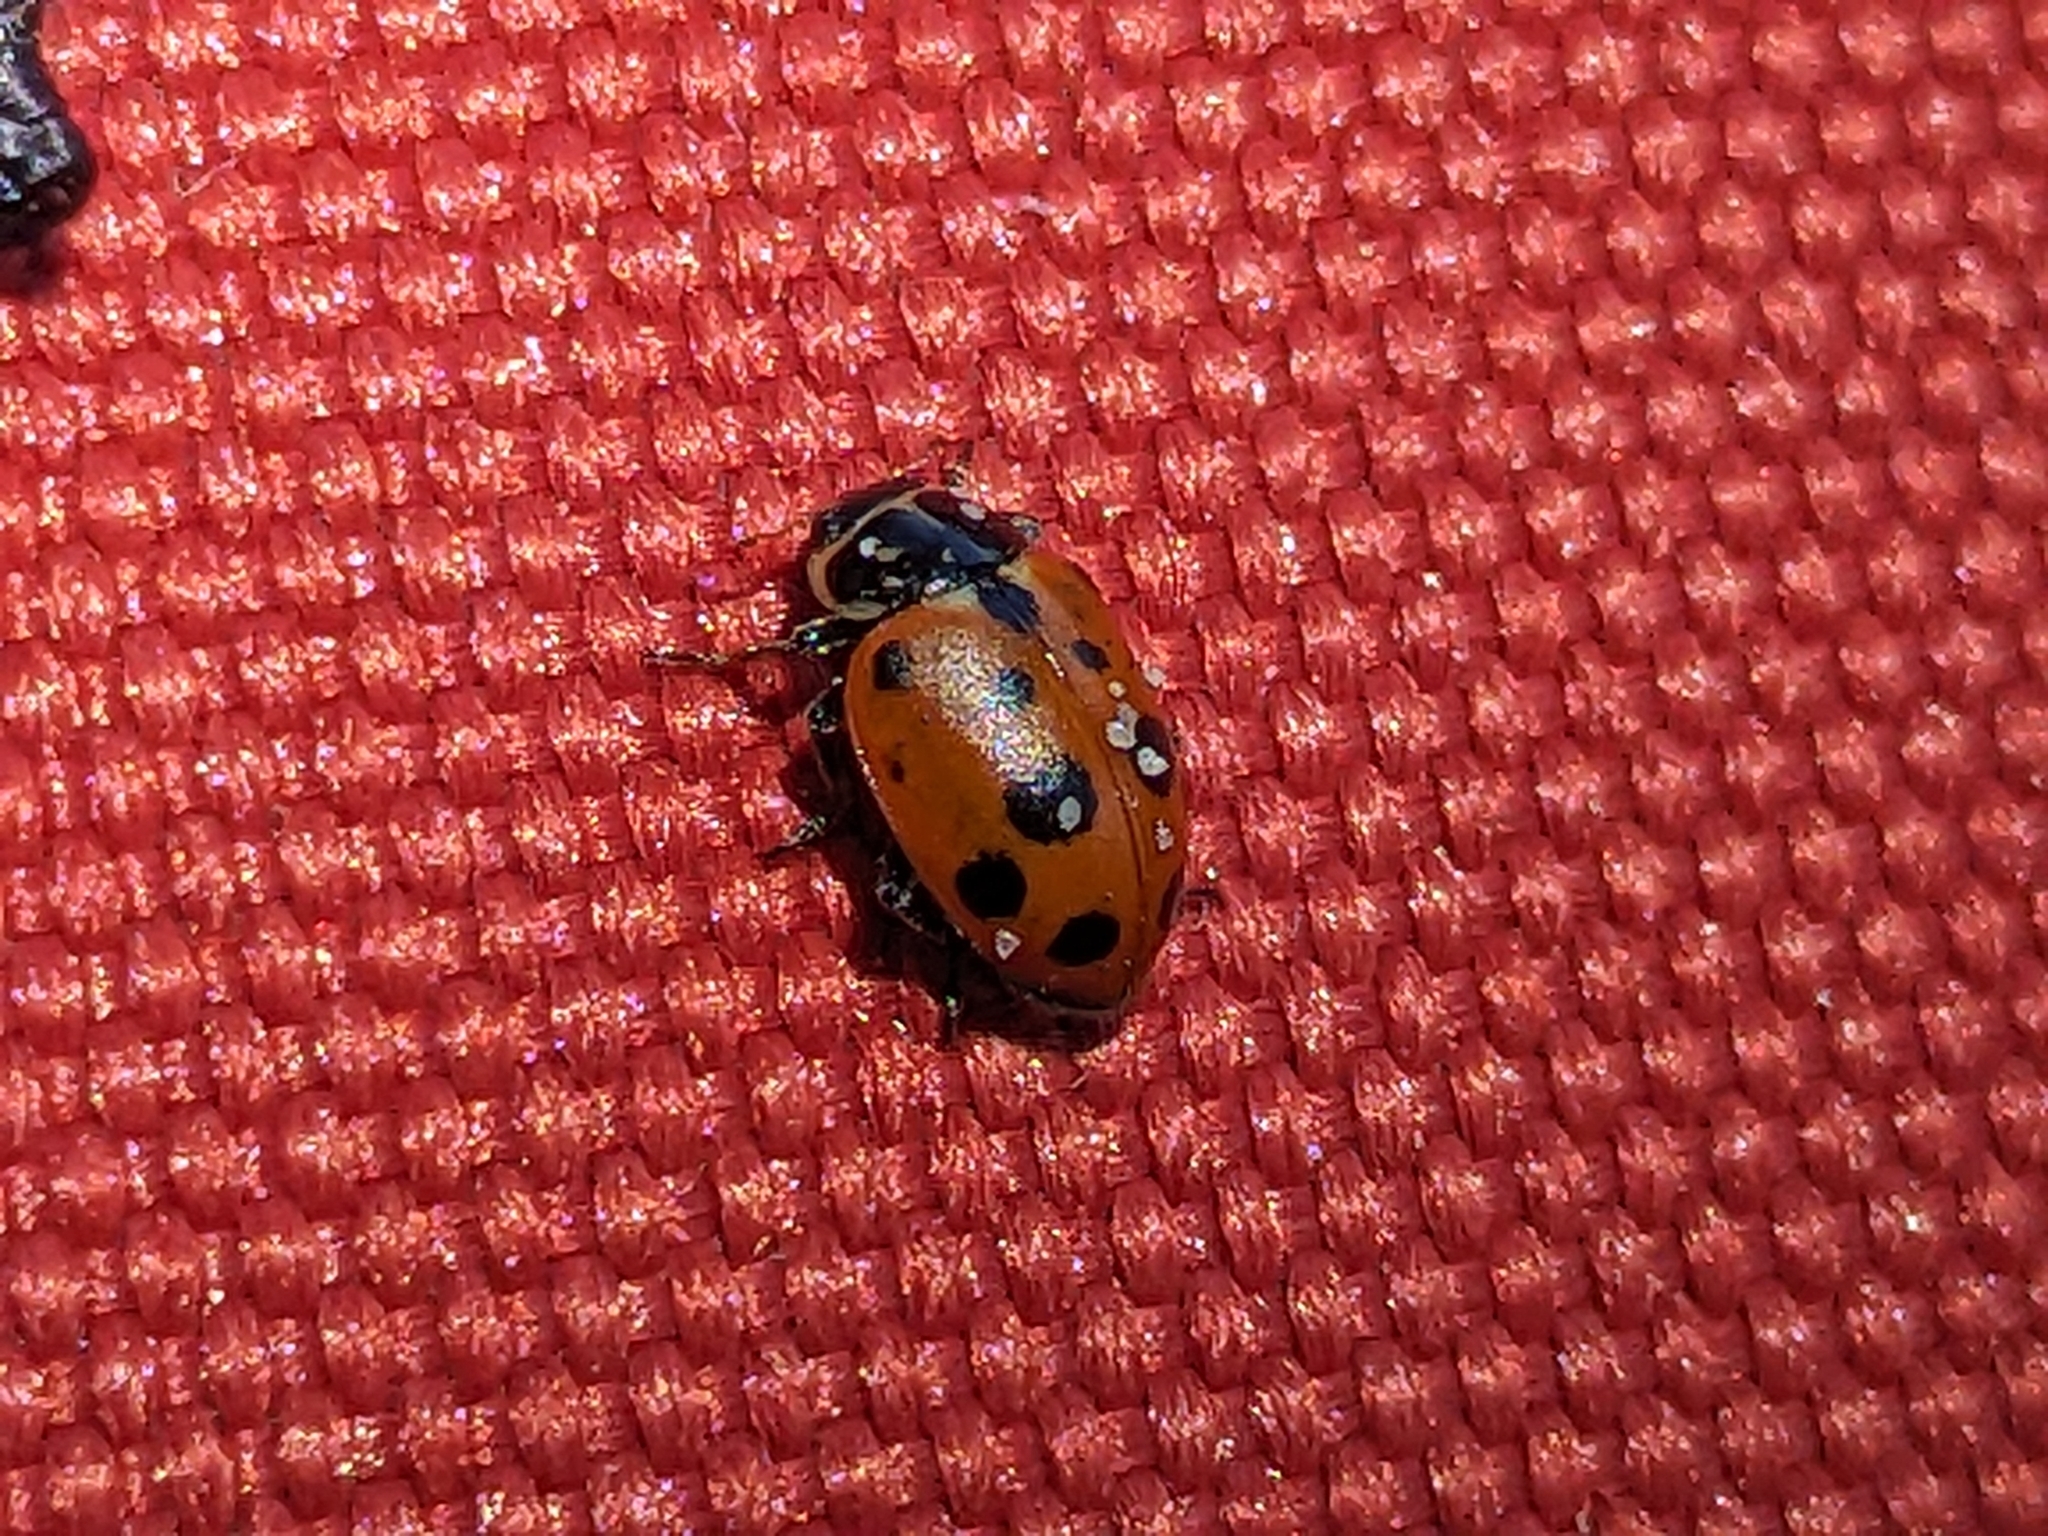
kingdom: Animalia
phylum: Arthropoda
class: Insecta
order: Coleoptera
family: Coccinellidae
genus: Hippodamia
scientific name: Hippodamia variegata
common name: Ladybird beetle
